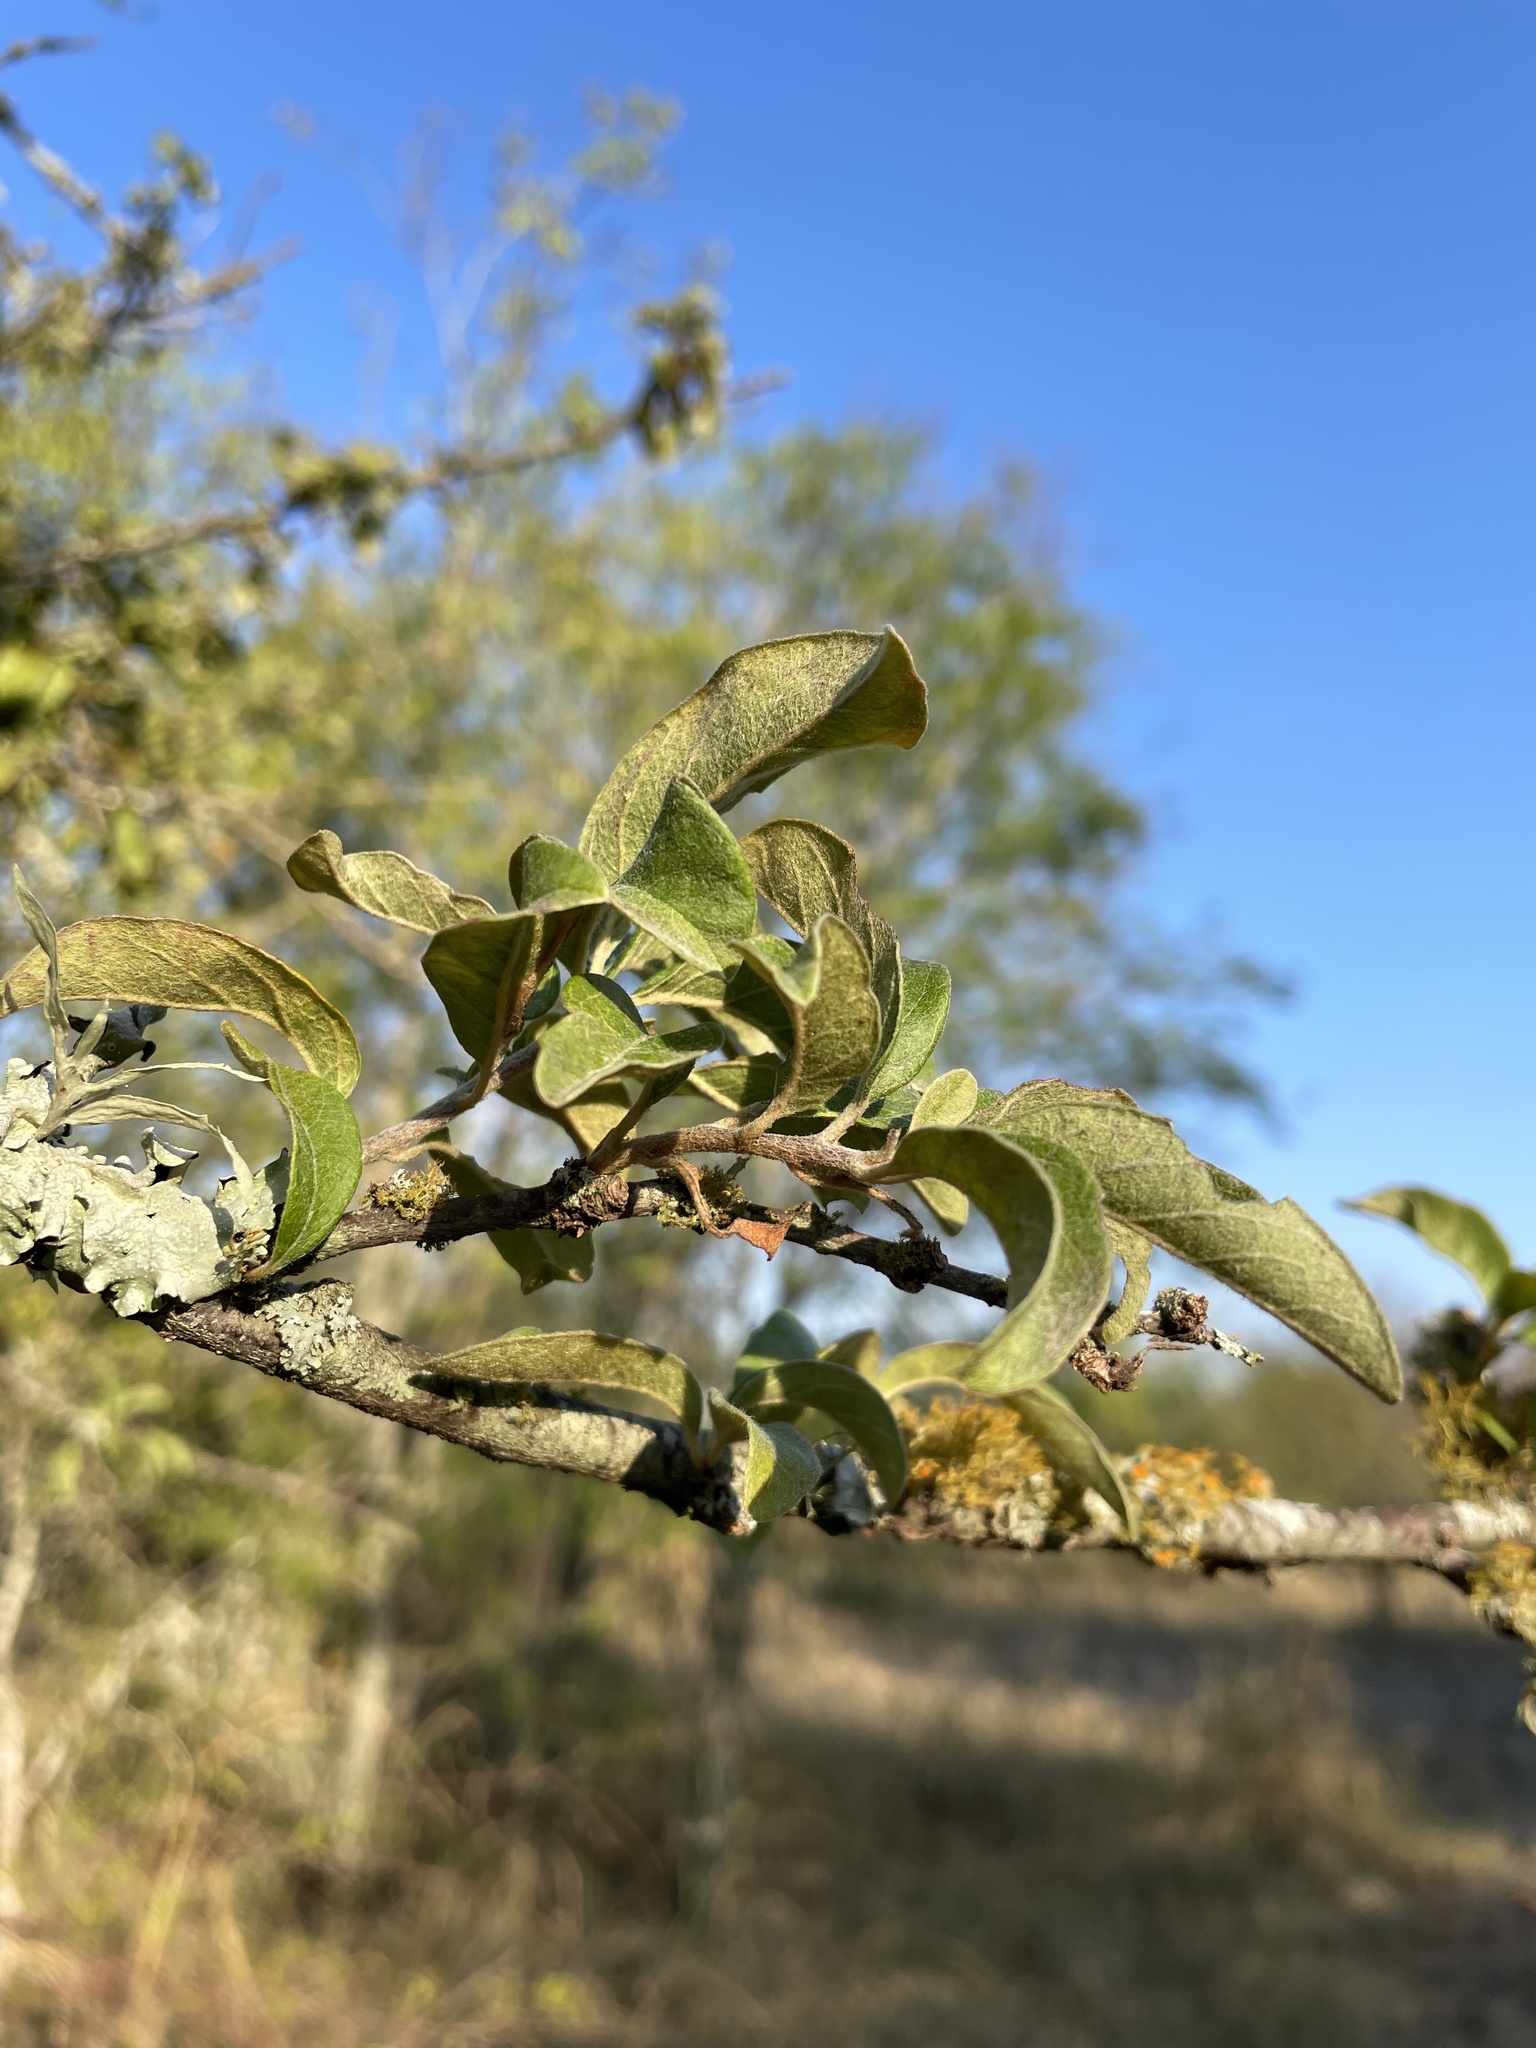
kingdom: Plantae
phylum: Tracheophyta
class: Magnoliopsida
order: Ericales
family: Sapotaceae
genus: Sideroxylon
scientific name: Sideroxylon lanuginosum
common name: Chittamwood
